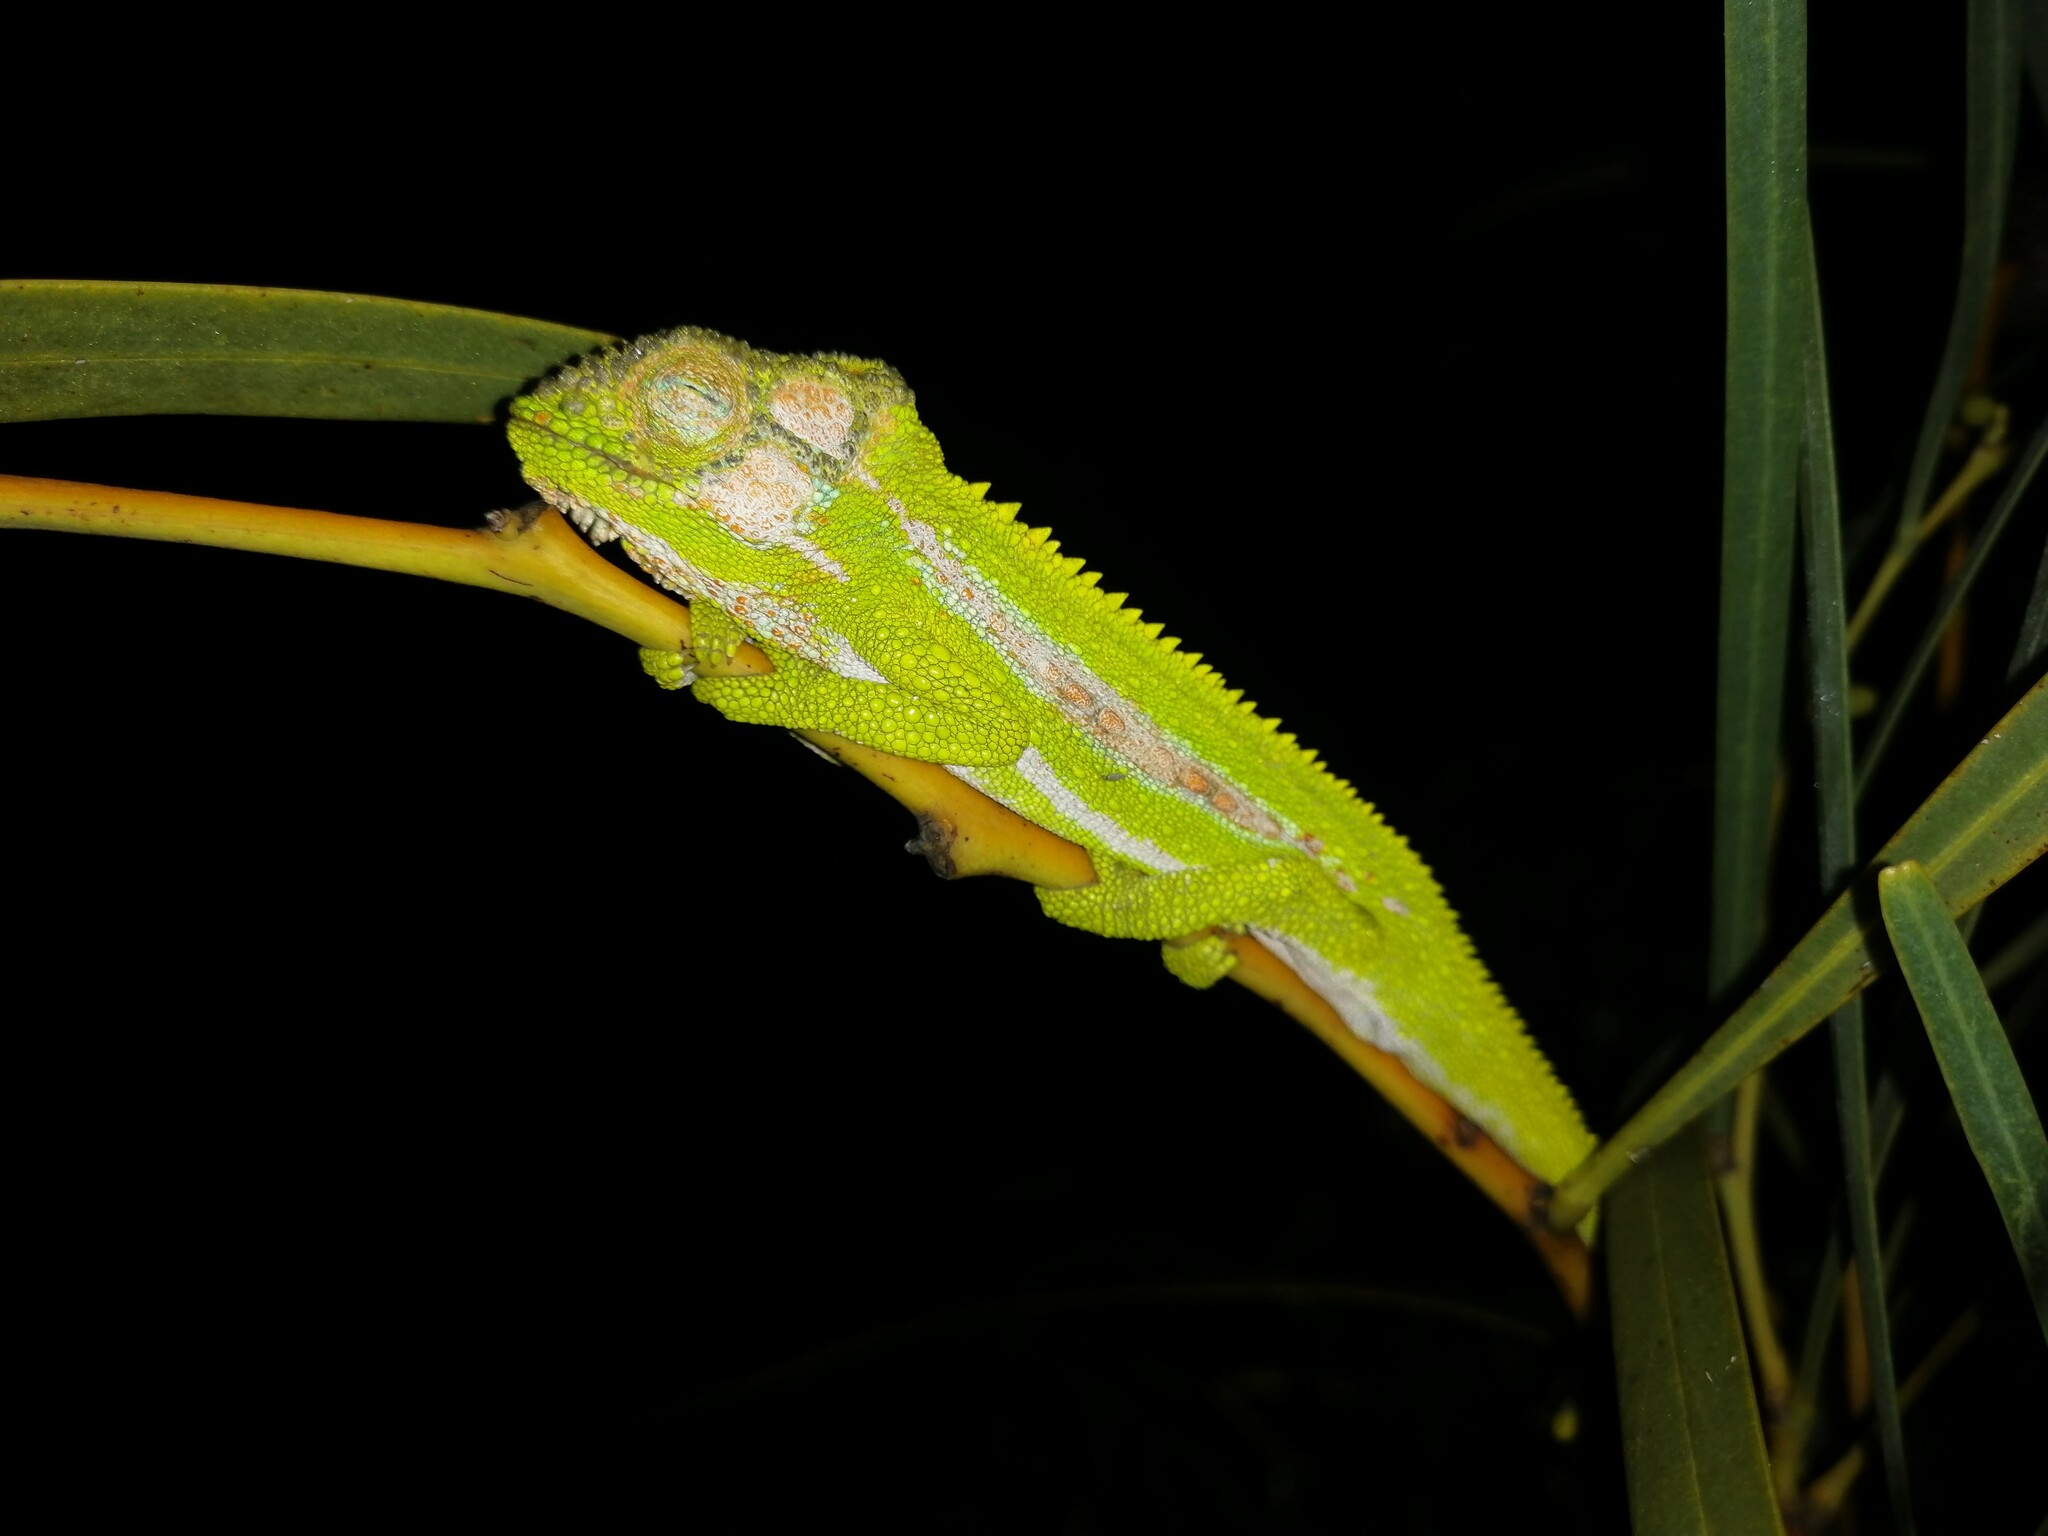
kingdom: Animalia
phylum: Chordata
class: Squamata
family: Chamaeleonidae
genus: Bradypodion
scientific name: Bradypodion pumilum
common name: Cape dwarf chameleon
